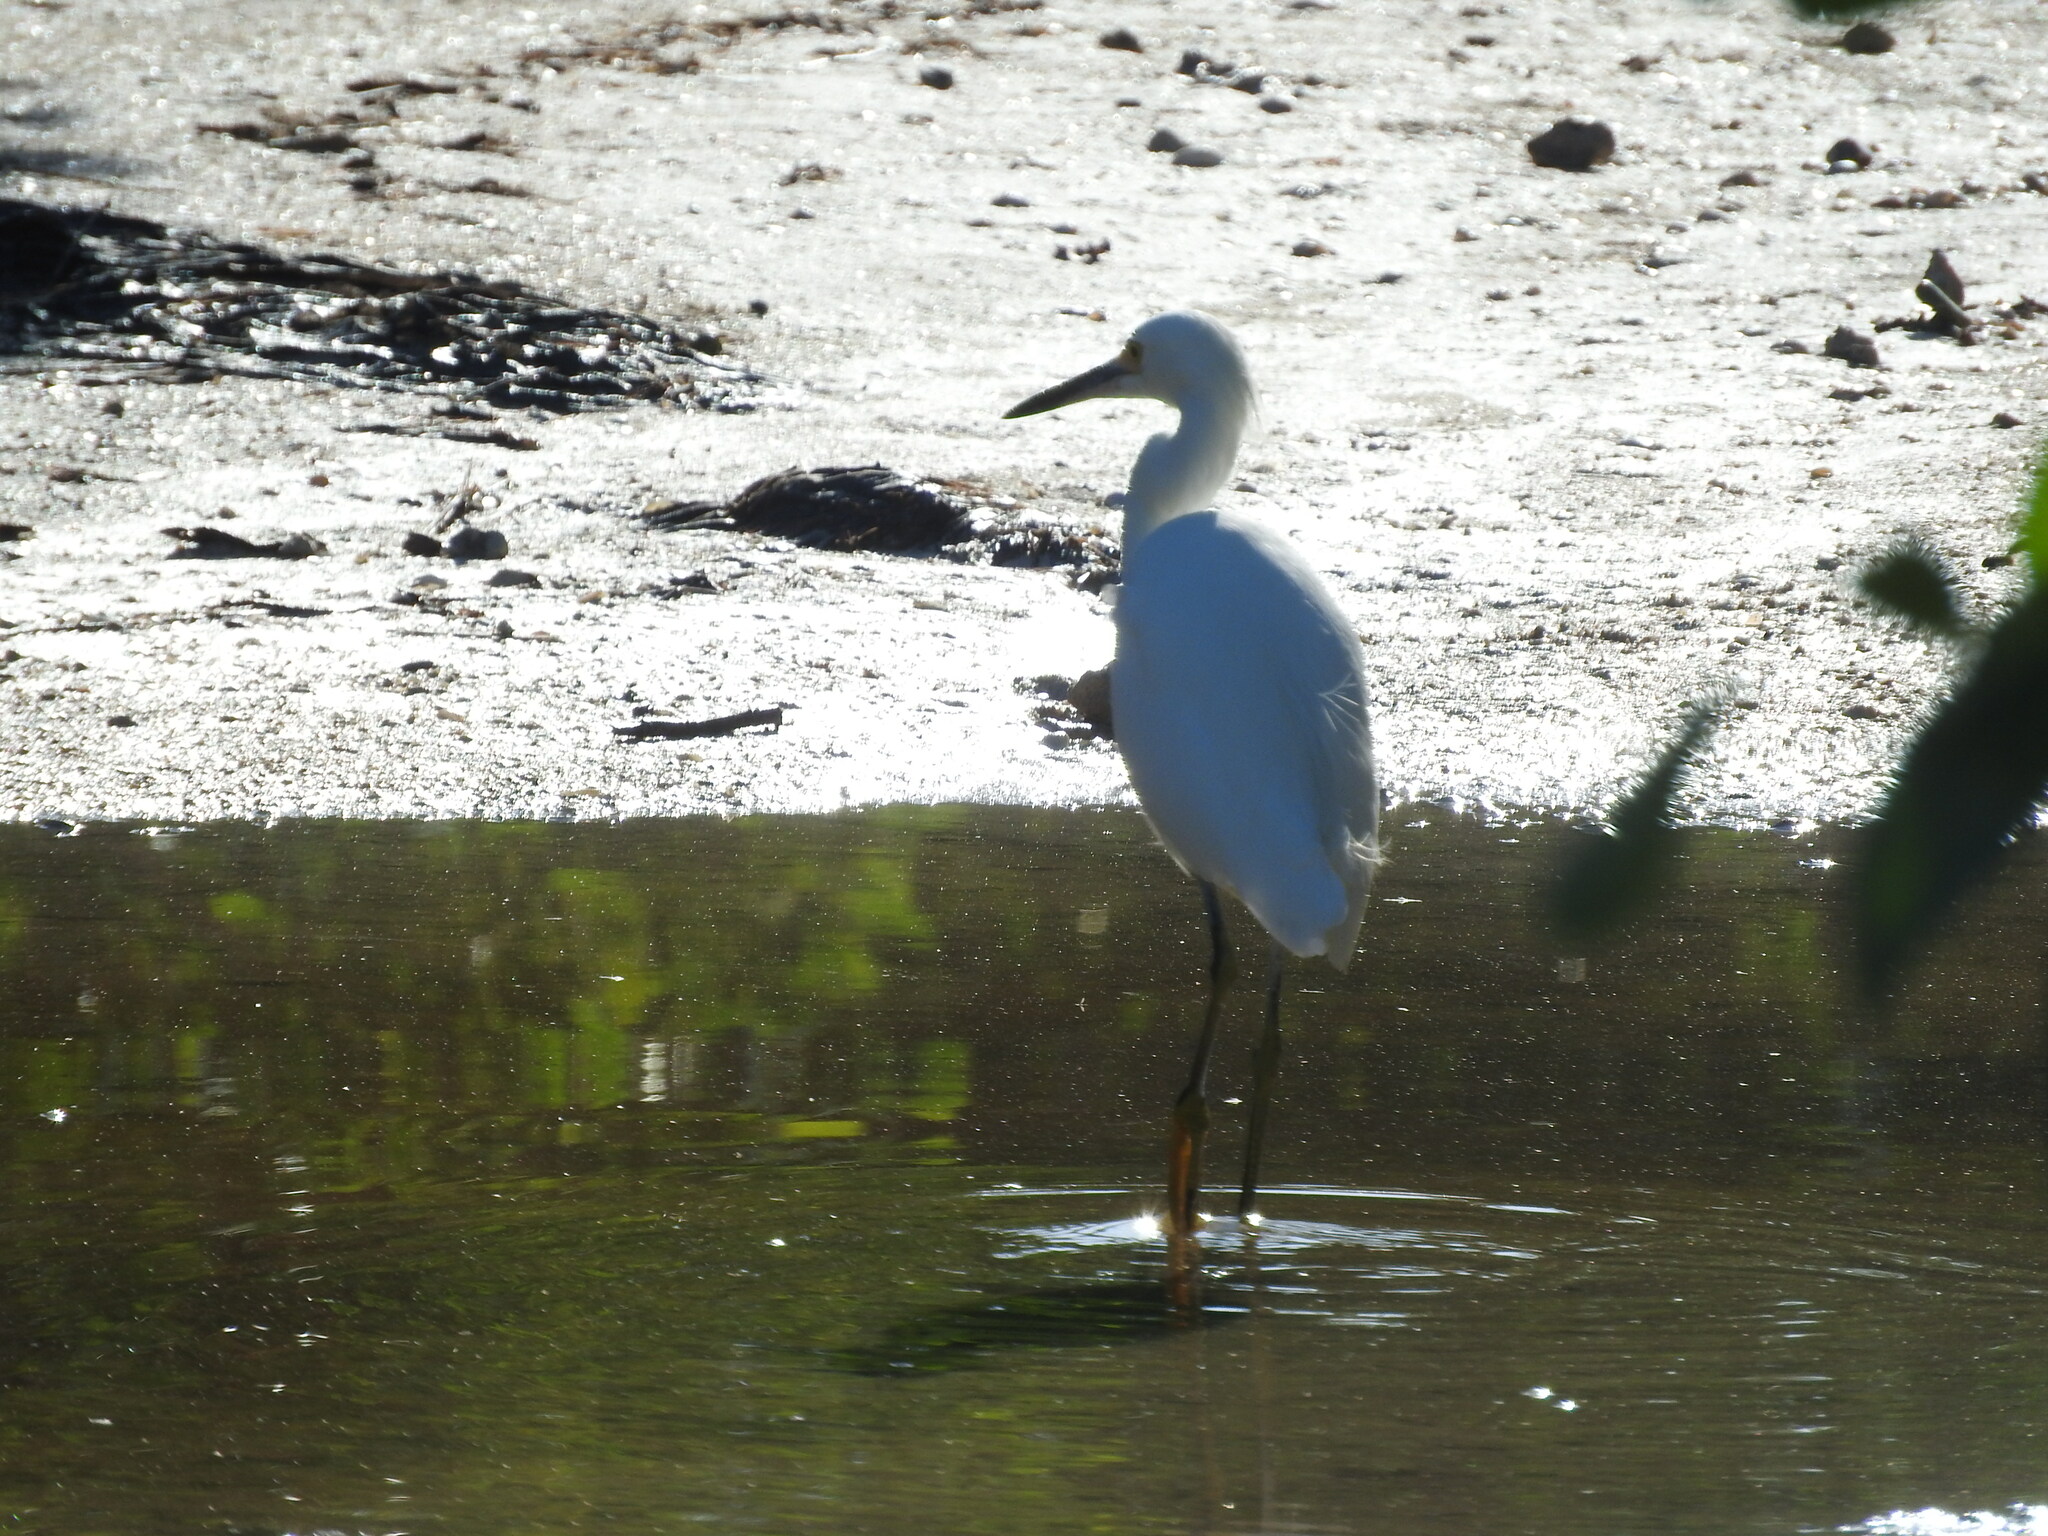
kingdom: Animalia
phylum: Chordata
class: Aves
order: Pelecaniformes
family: Ardeidae
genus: Egretta
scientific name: Egretta thula
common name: Snowy egret
